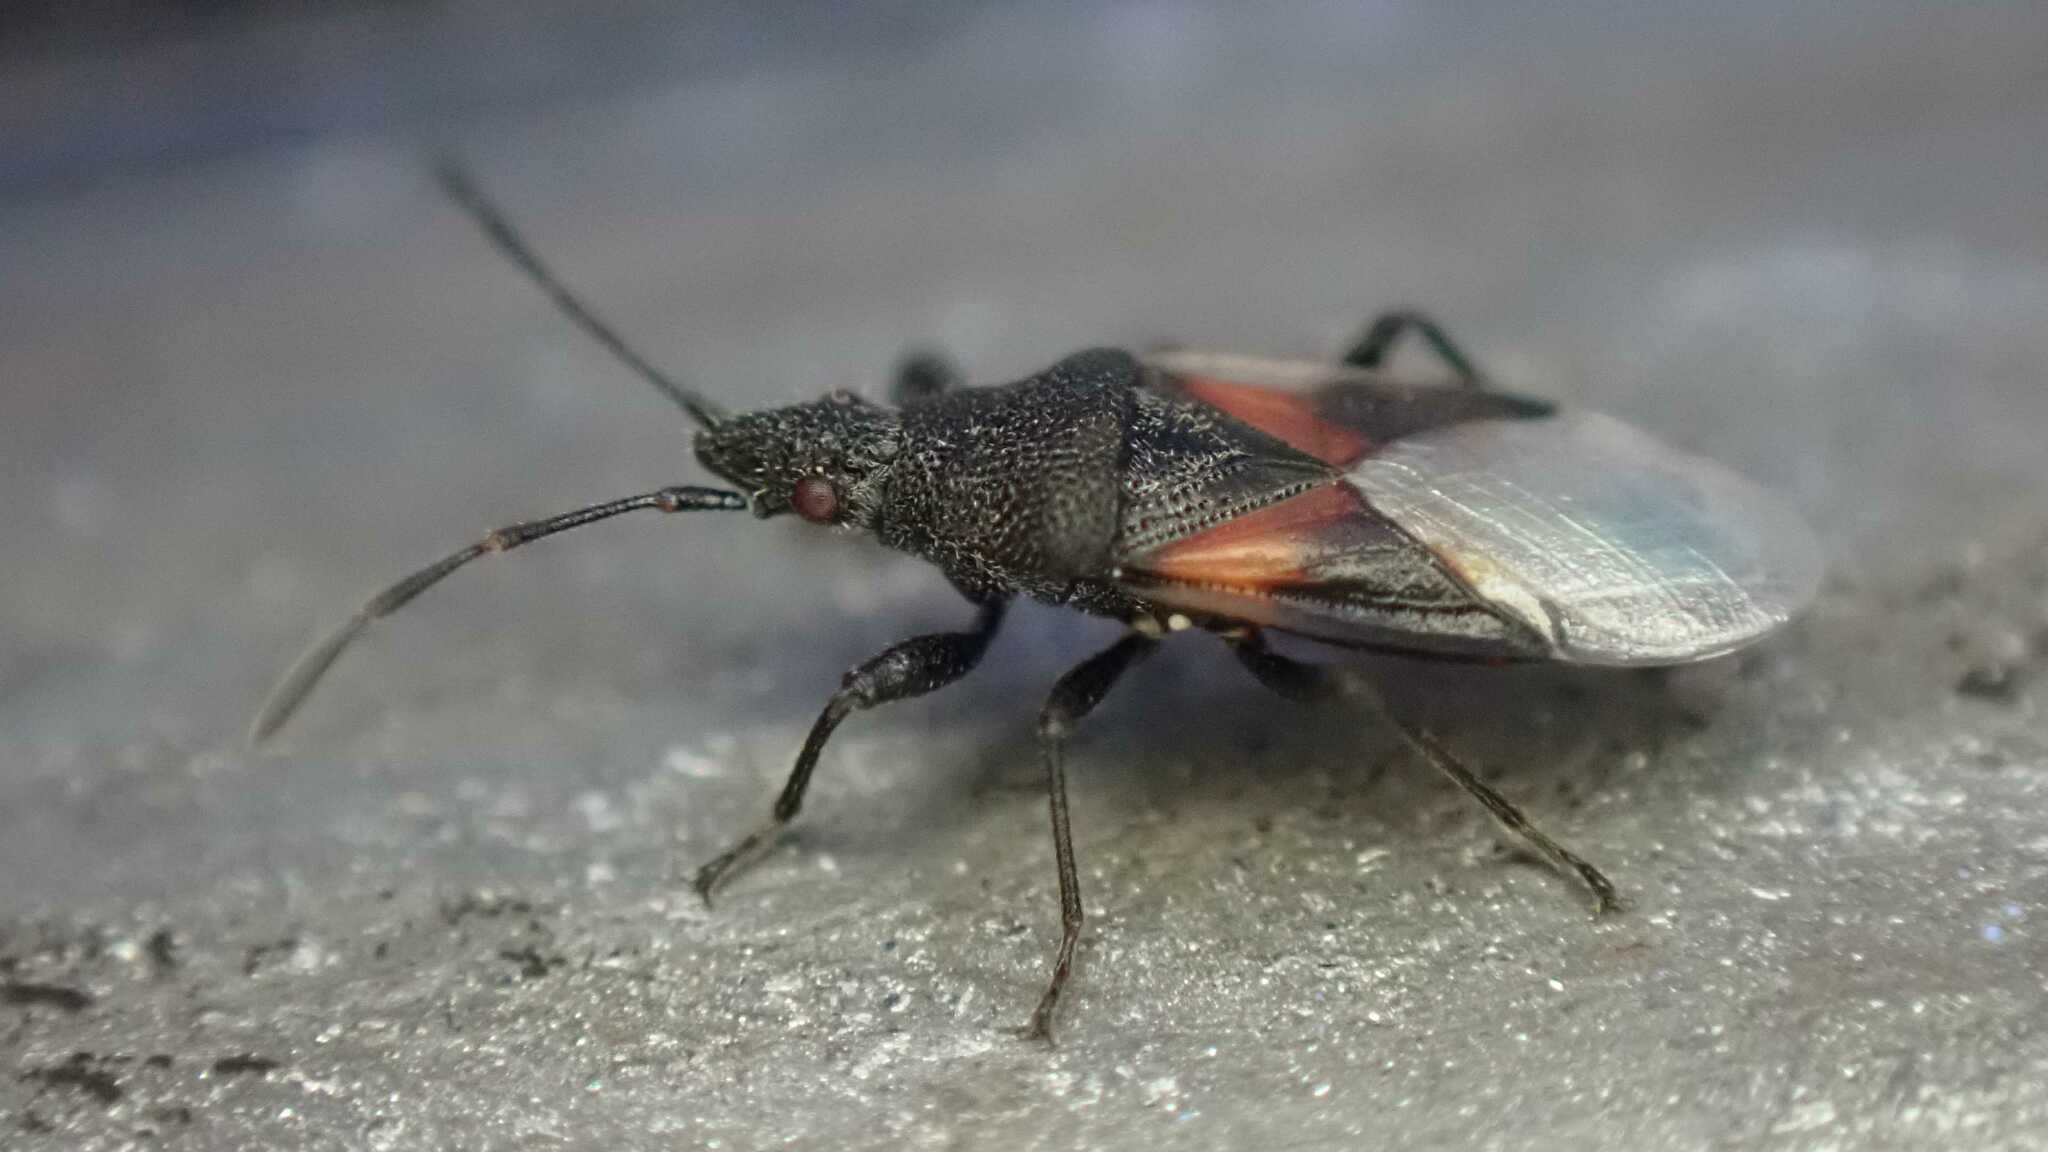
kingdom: Animalia
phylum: Arthropoda
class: Insecta
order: Hemiptera
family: Oxycarenidae
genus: Oxycarenus
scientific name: Oxycarenus lavaterae
